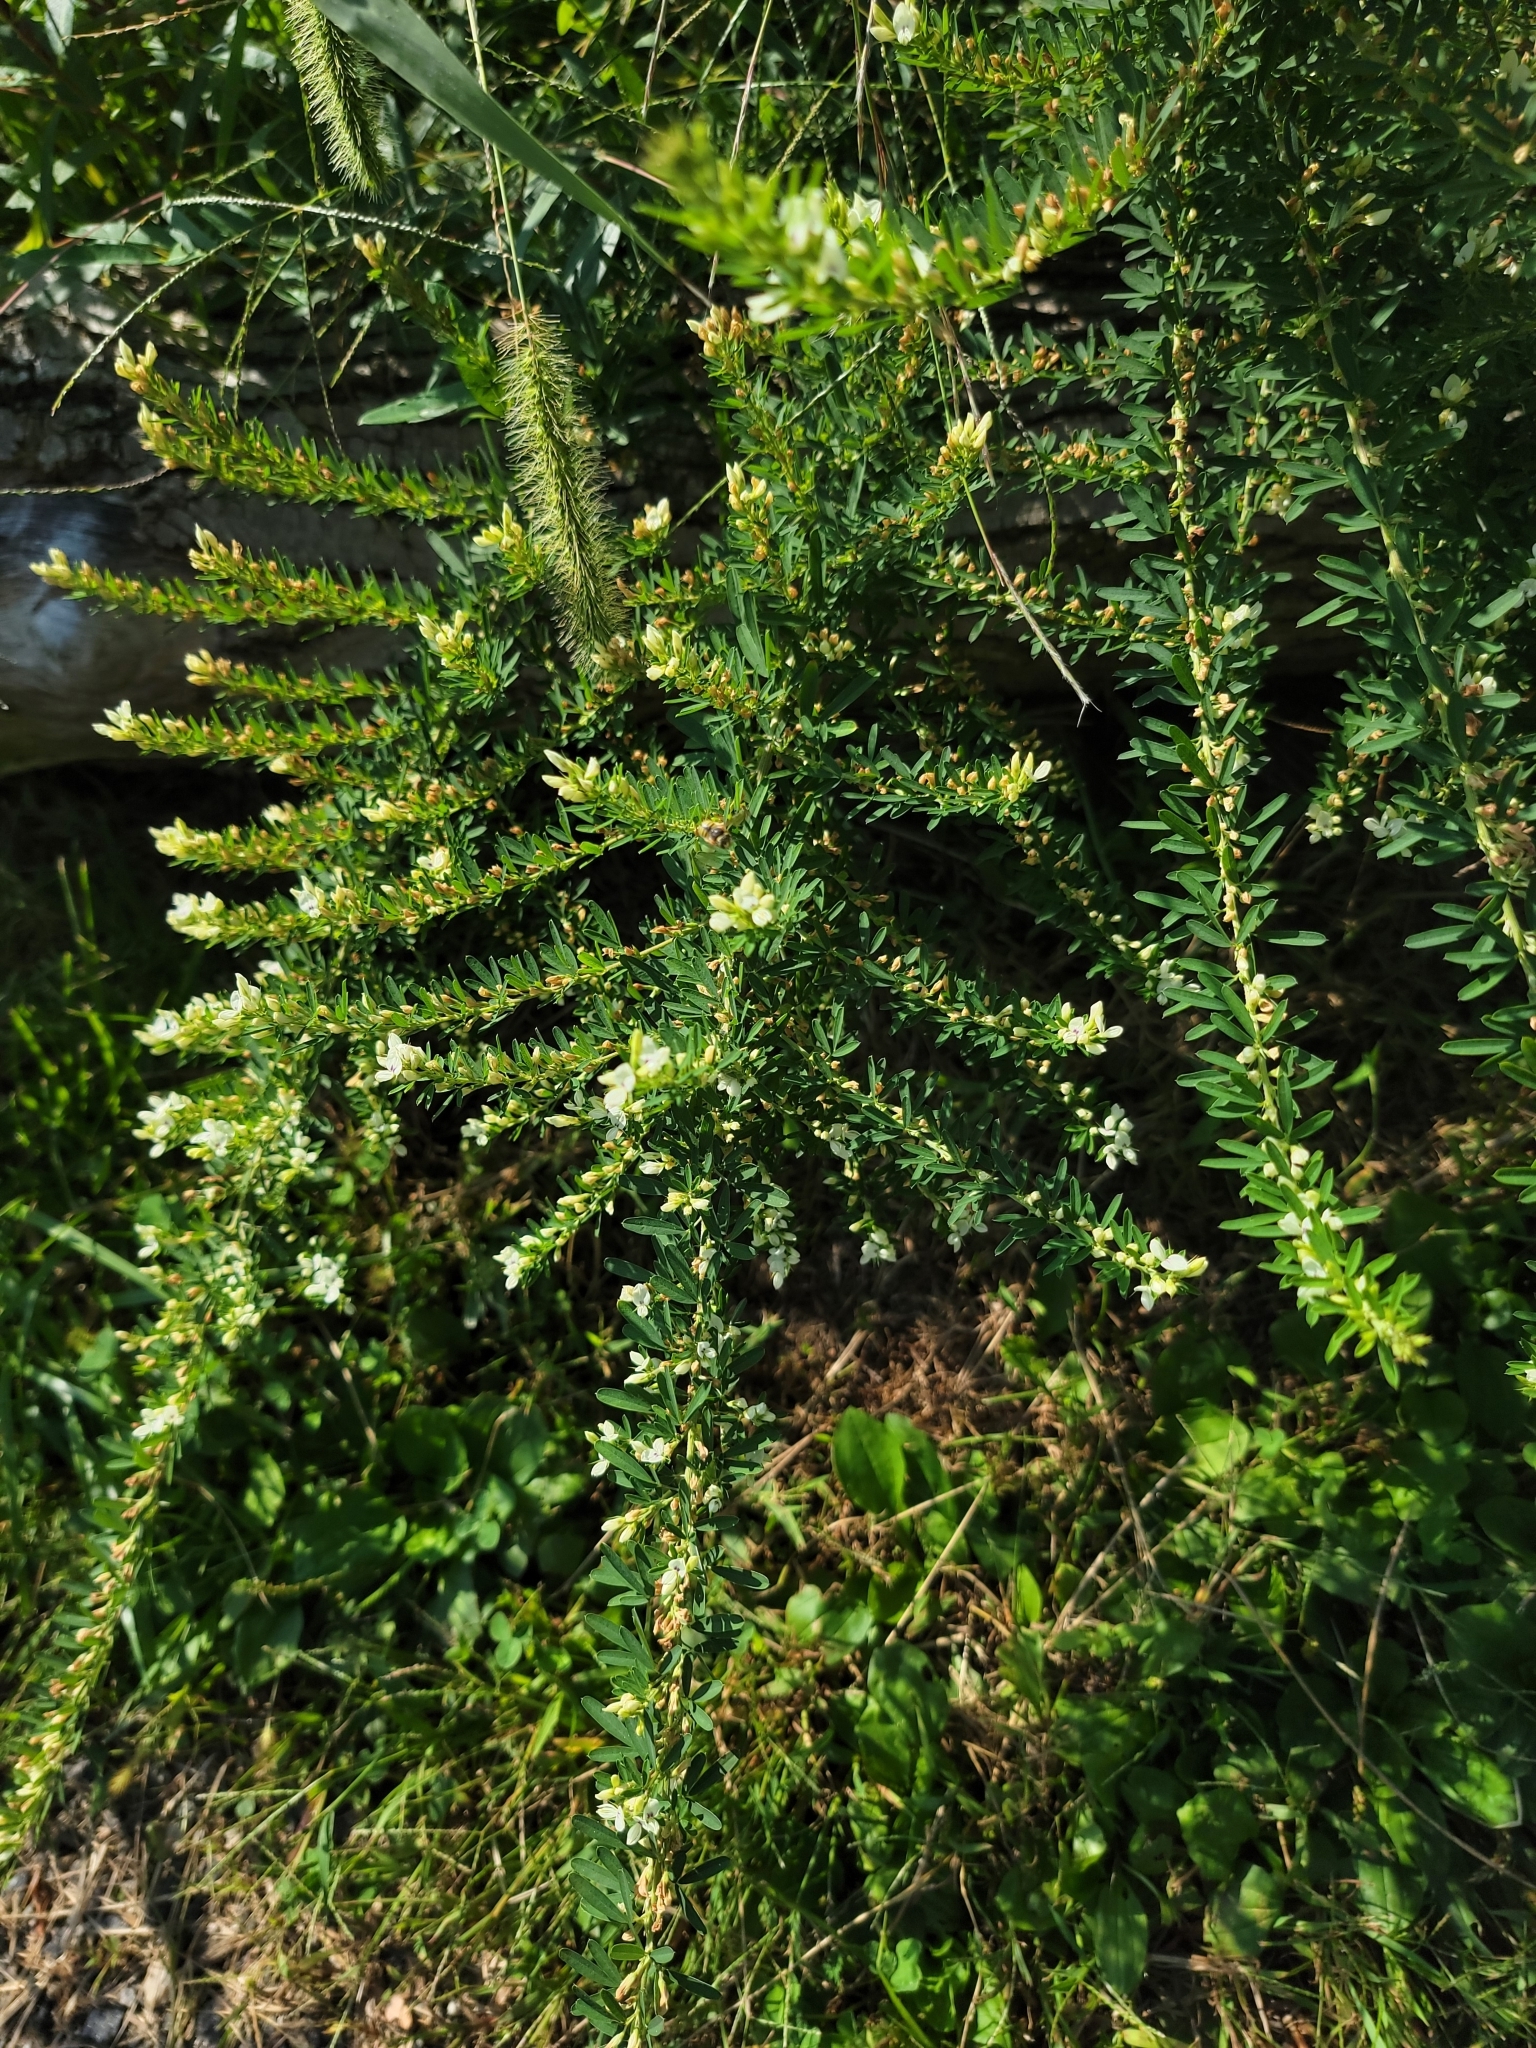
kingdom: Plantae
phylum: Tracheophyta
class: Magnoliopsida
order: Fabales
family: Fabaceae
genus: Lespedeza
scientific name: Lespedeza cuneata
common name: Chinese bush-clover
